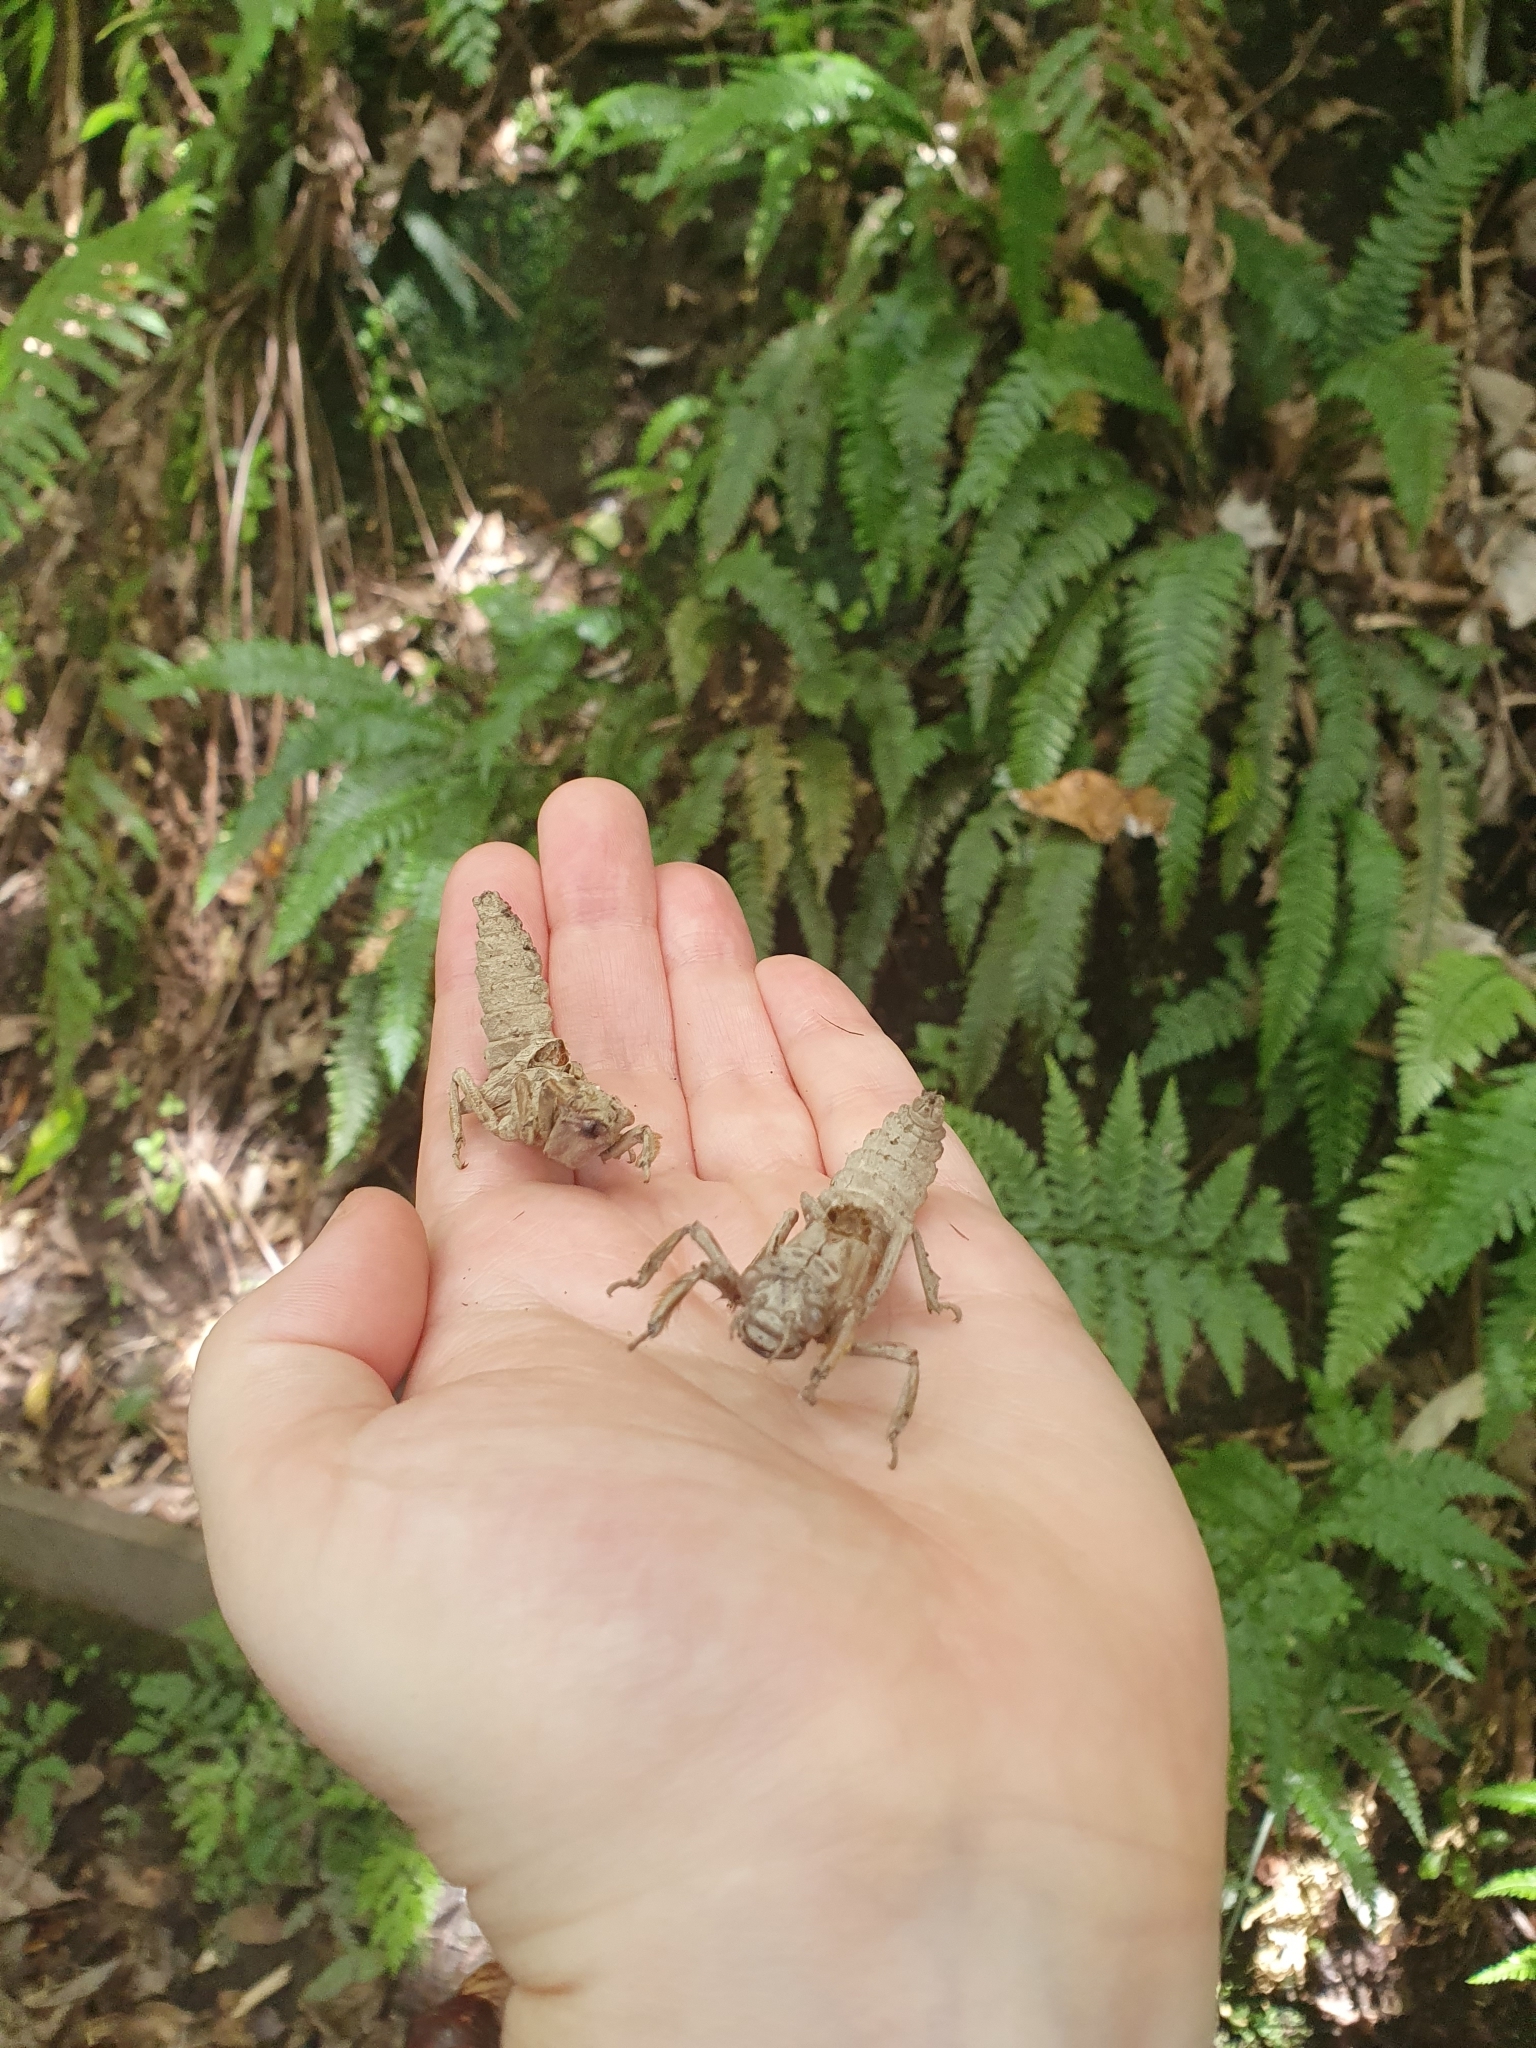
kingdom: Animalia
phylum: Arthropoda
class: Insecta
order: Odonata
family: Petaluridae
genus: Uropetala
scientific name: Uropetala carovei
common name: Bush giant dragonfly
